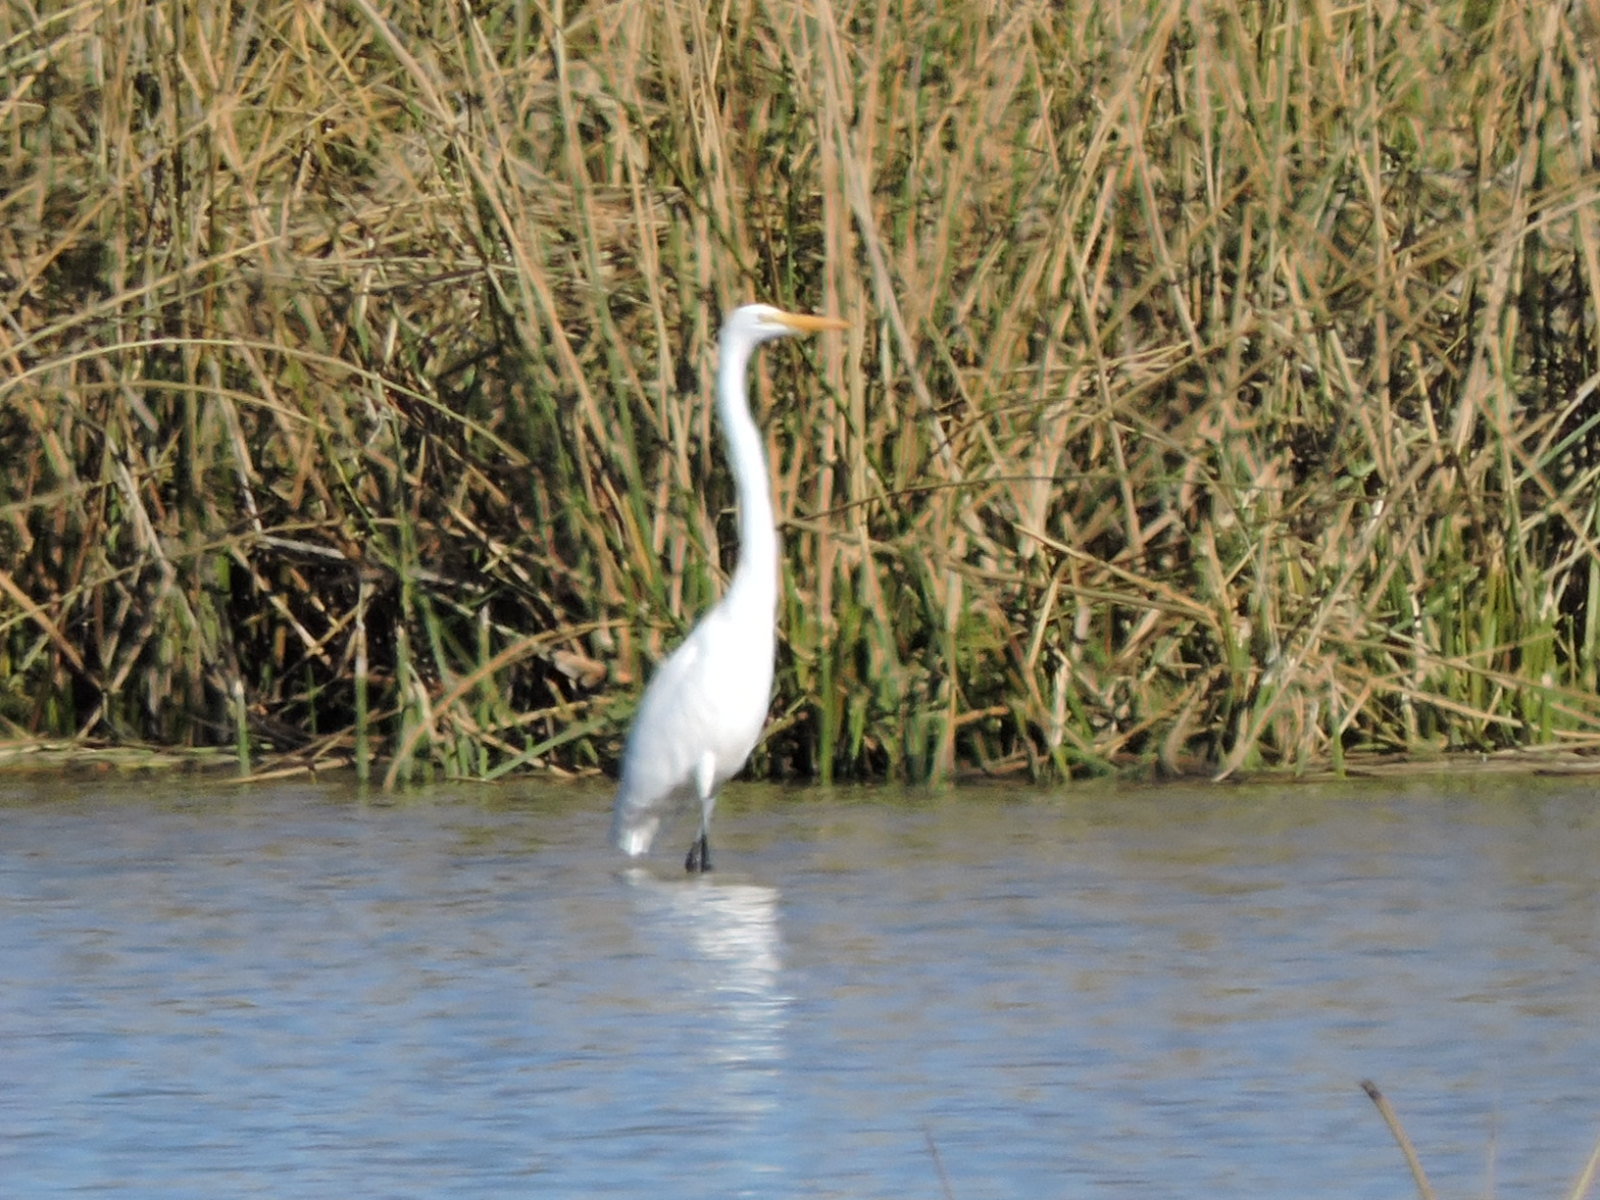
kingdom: Animalia
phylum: Chordata
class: Aves
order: Pelecaniformes
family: Ardeidae
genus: Ardea
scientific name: Ardea alba
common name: Great egret
